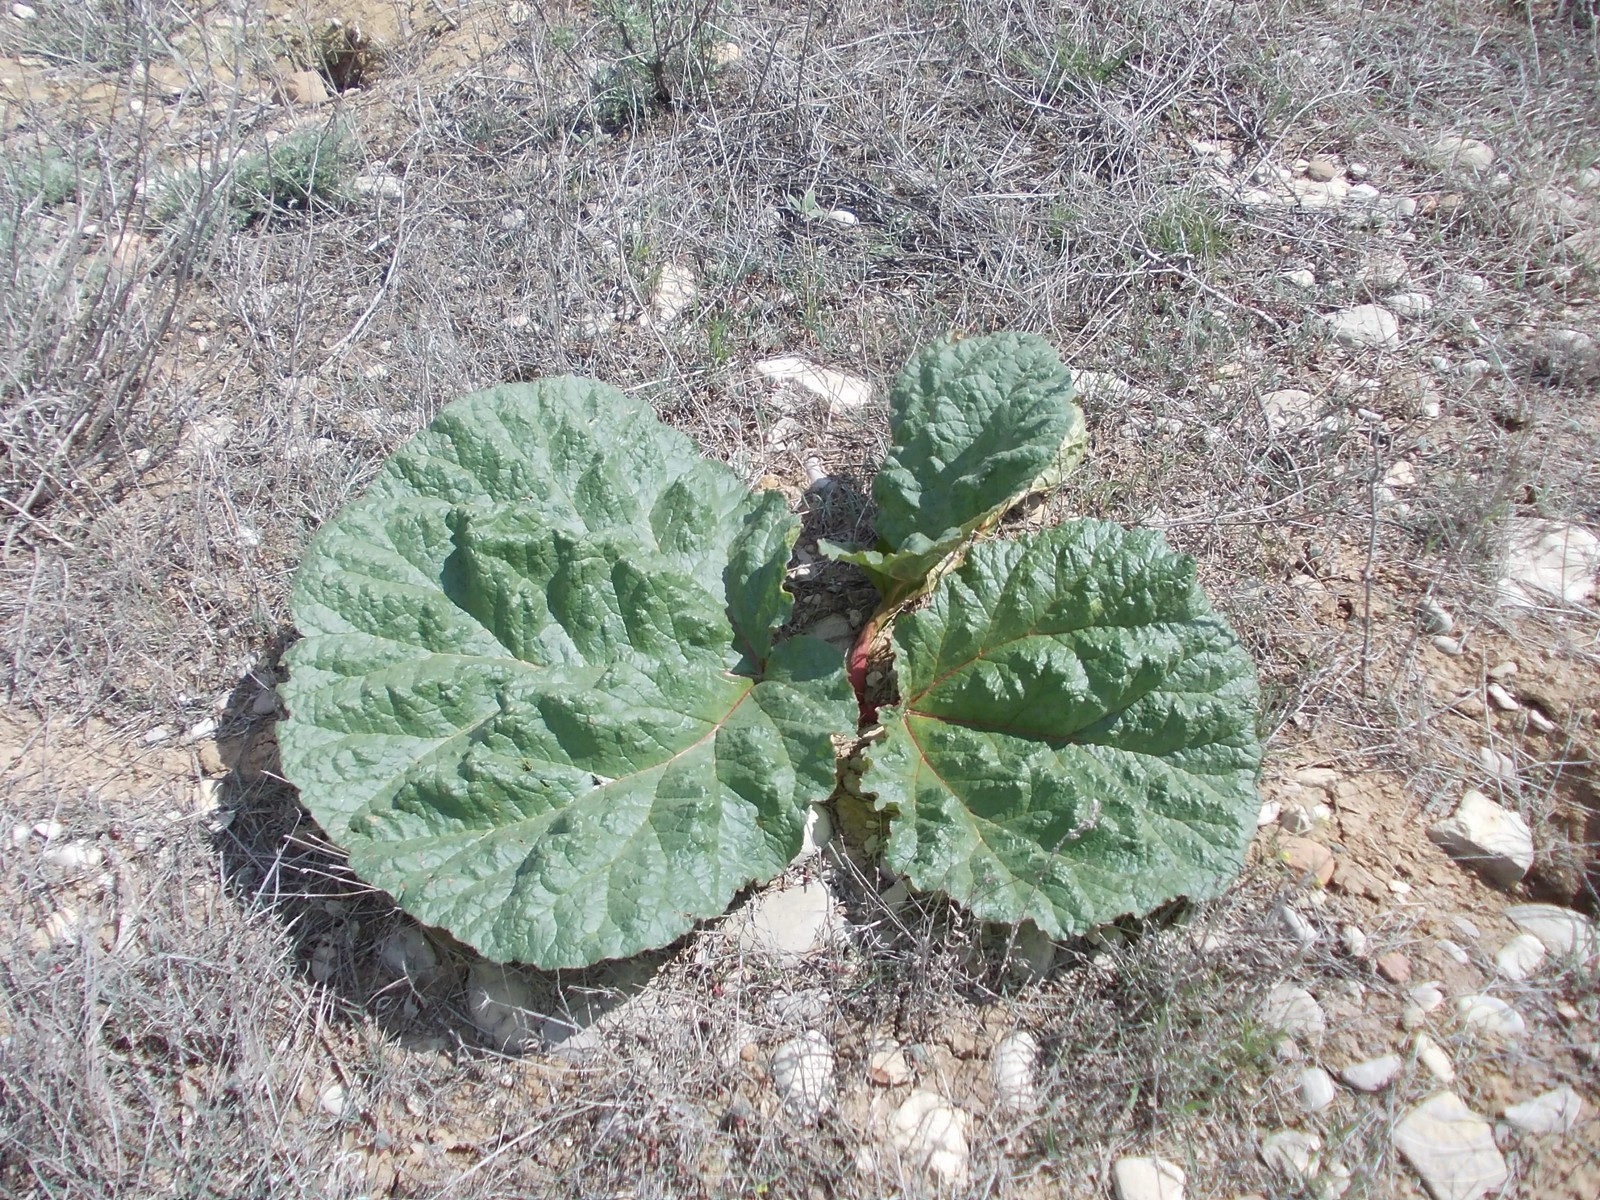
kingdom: Plantae
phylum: Tracheophyta
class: Magnoliopsida
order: Caryophyllales
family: Polygonaceae
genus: Rheum
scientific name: Rheum tataricum
